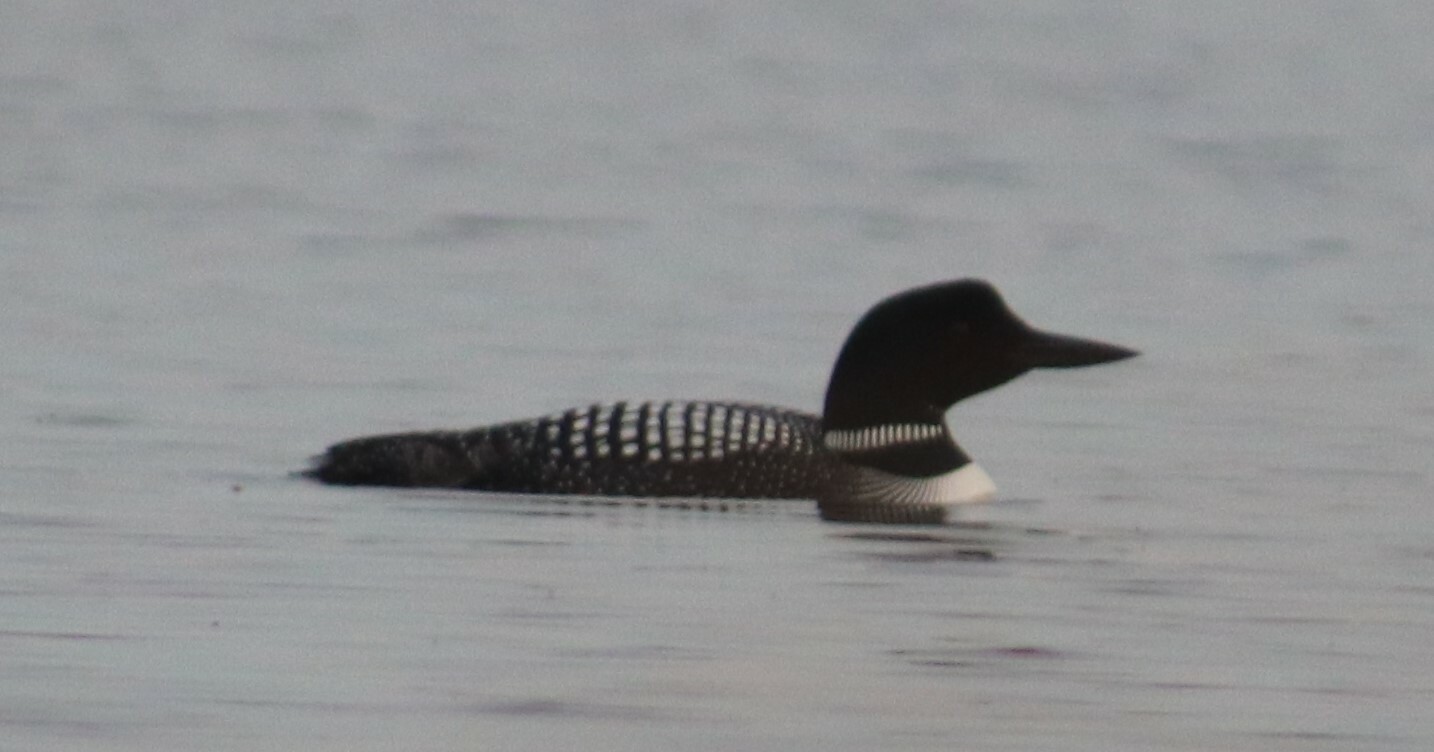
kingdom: Animalia
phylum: Chordata
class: Aves
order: Gaviiformes
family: Gaviidae
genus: Gavia
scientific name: Gavia immer
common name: Common loon
